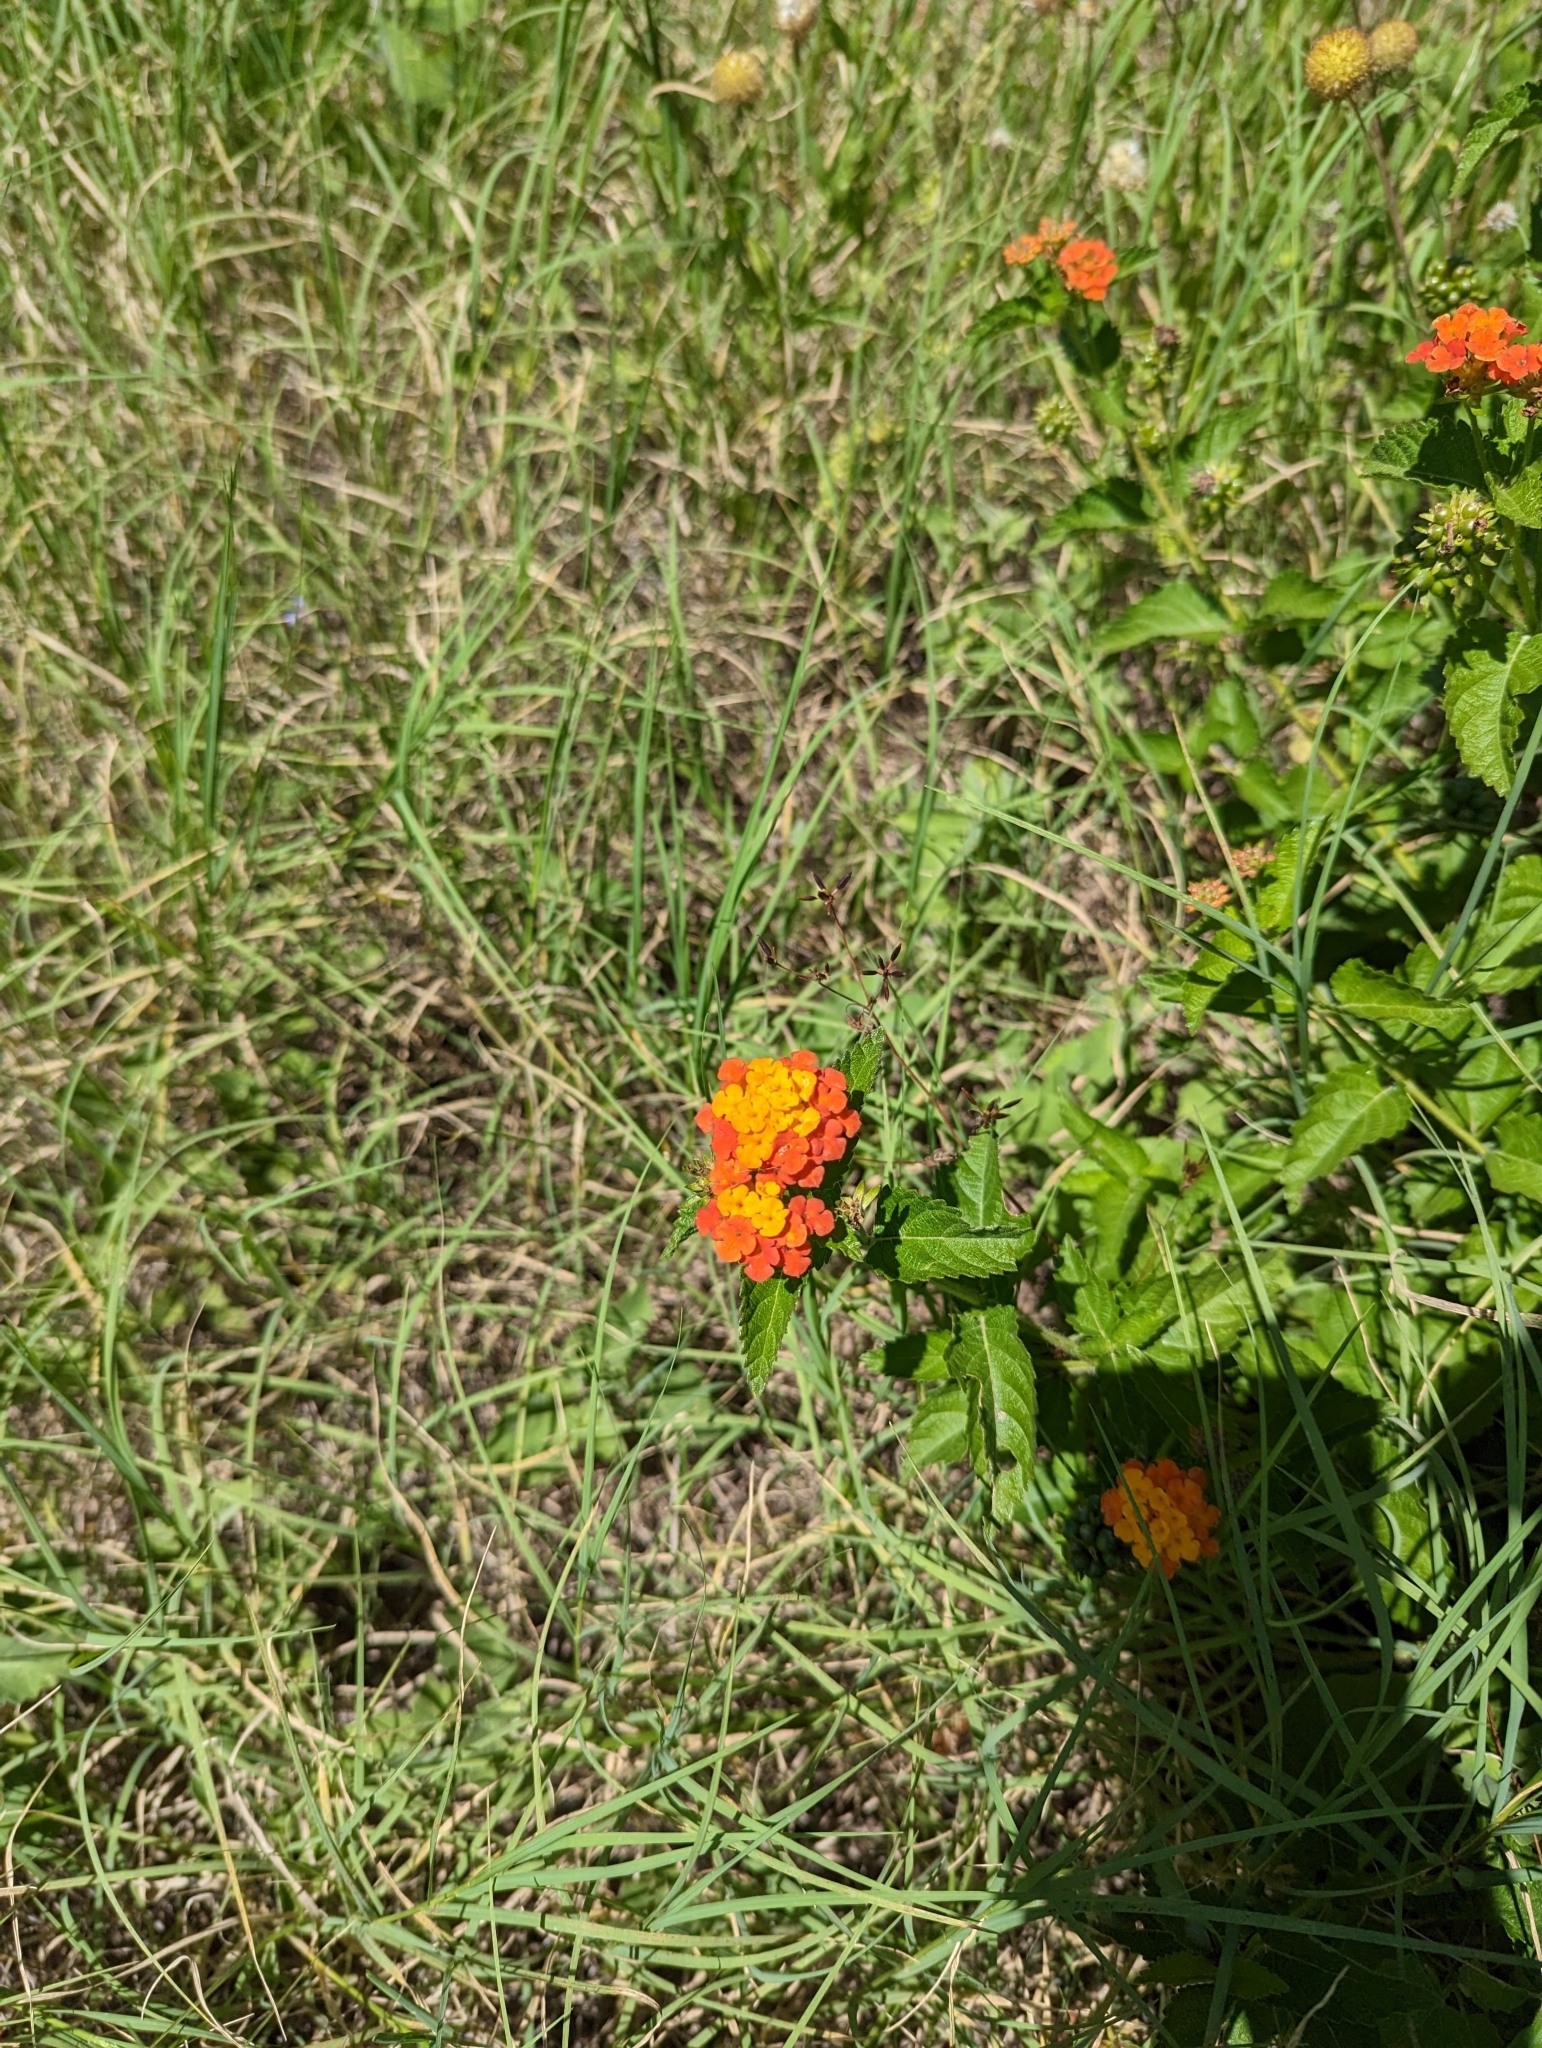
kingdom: Plantae
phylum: Tracheophyta
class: Magnoliopsida
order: Lamiales
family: Verbenaceae
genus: Lantana
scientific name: Lantana urticoides
